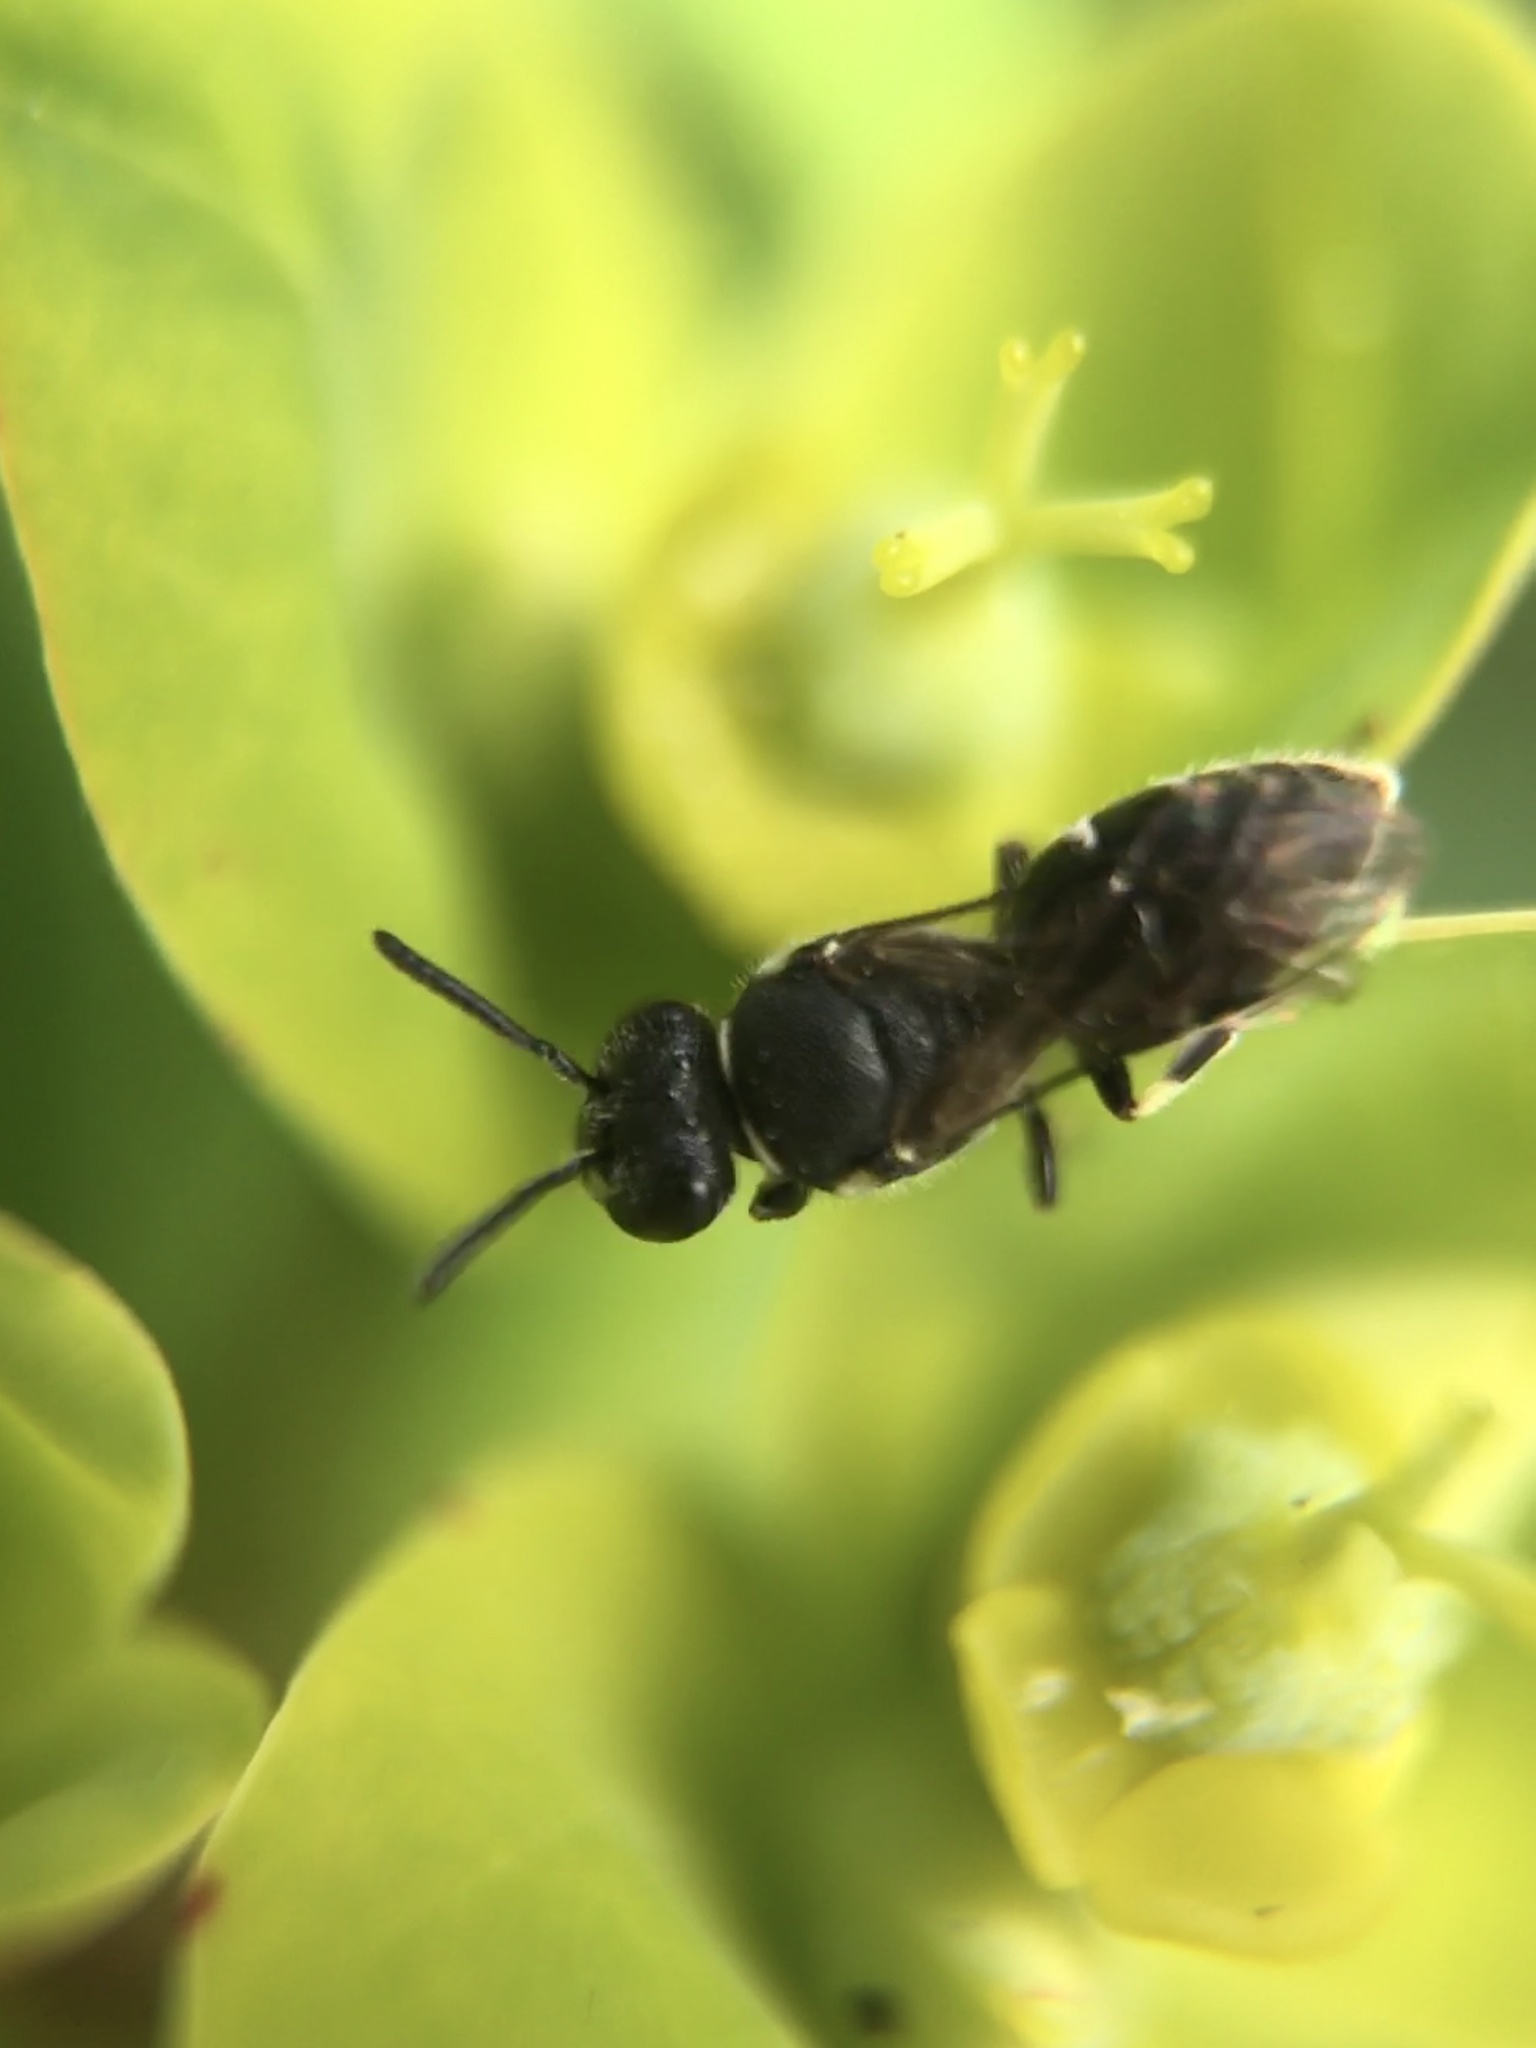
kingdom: Animalia
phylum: Arthropoda
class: Insecta
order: Hymenoptera
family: Colletidae
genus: Hylaeus
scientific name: Hylaeus
